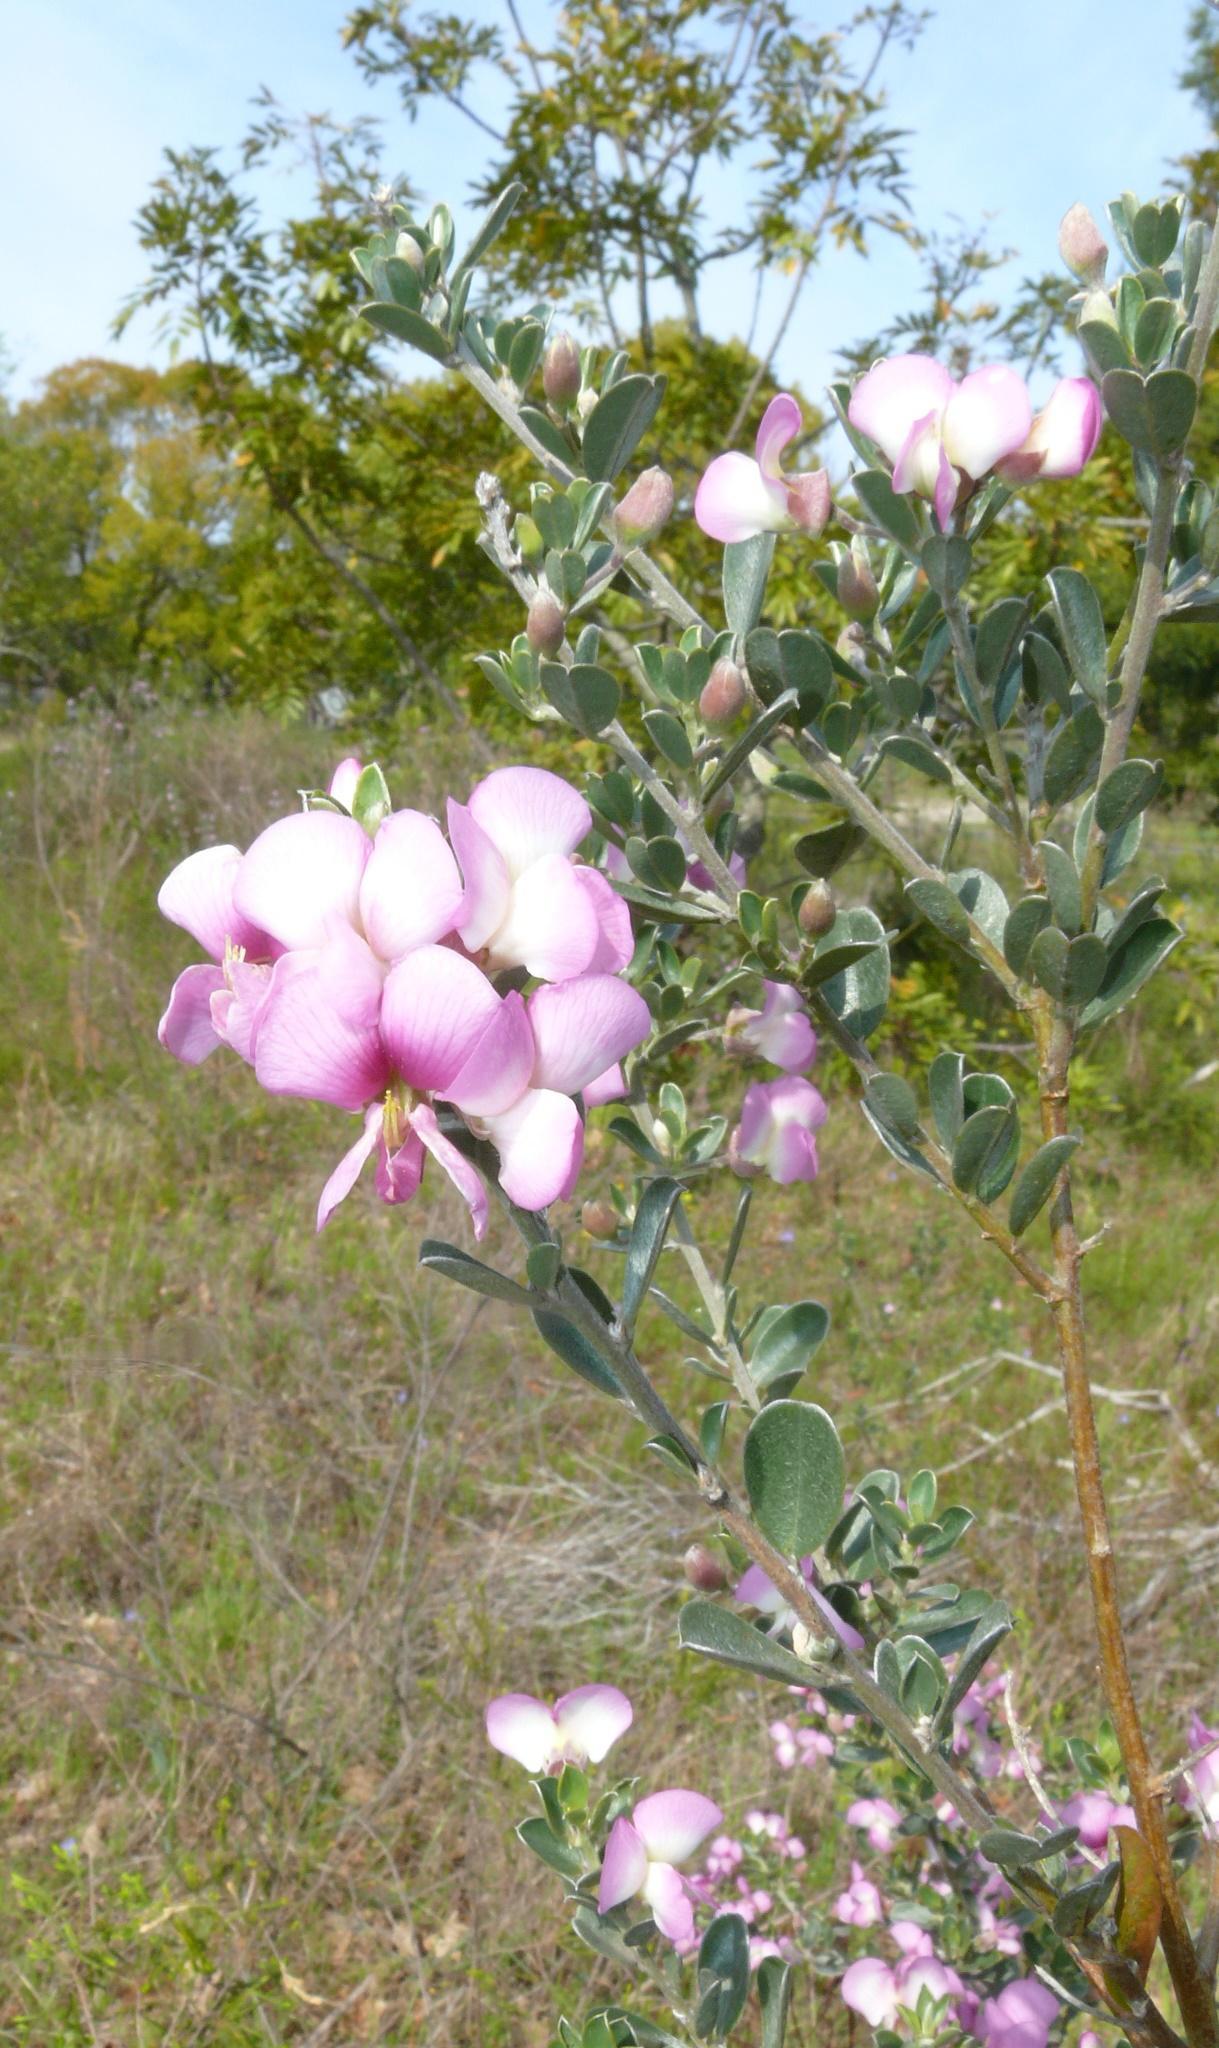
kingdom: Plantae
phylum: Tracheophyta
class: Magnoliopsida
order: Fabales
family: Fabaceae
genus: Podalyria
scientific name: Podalyria myrtillifolia
